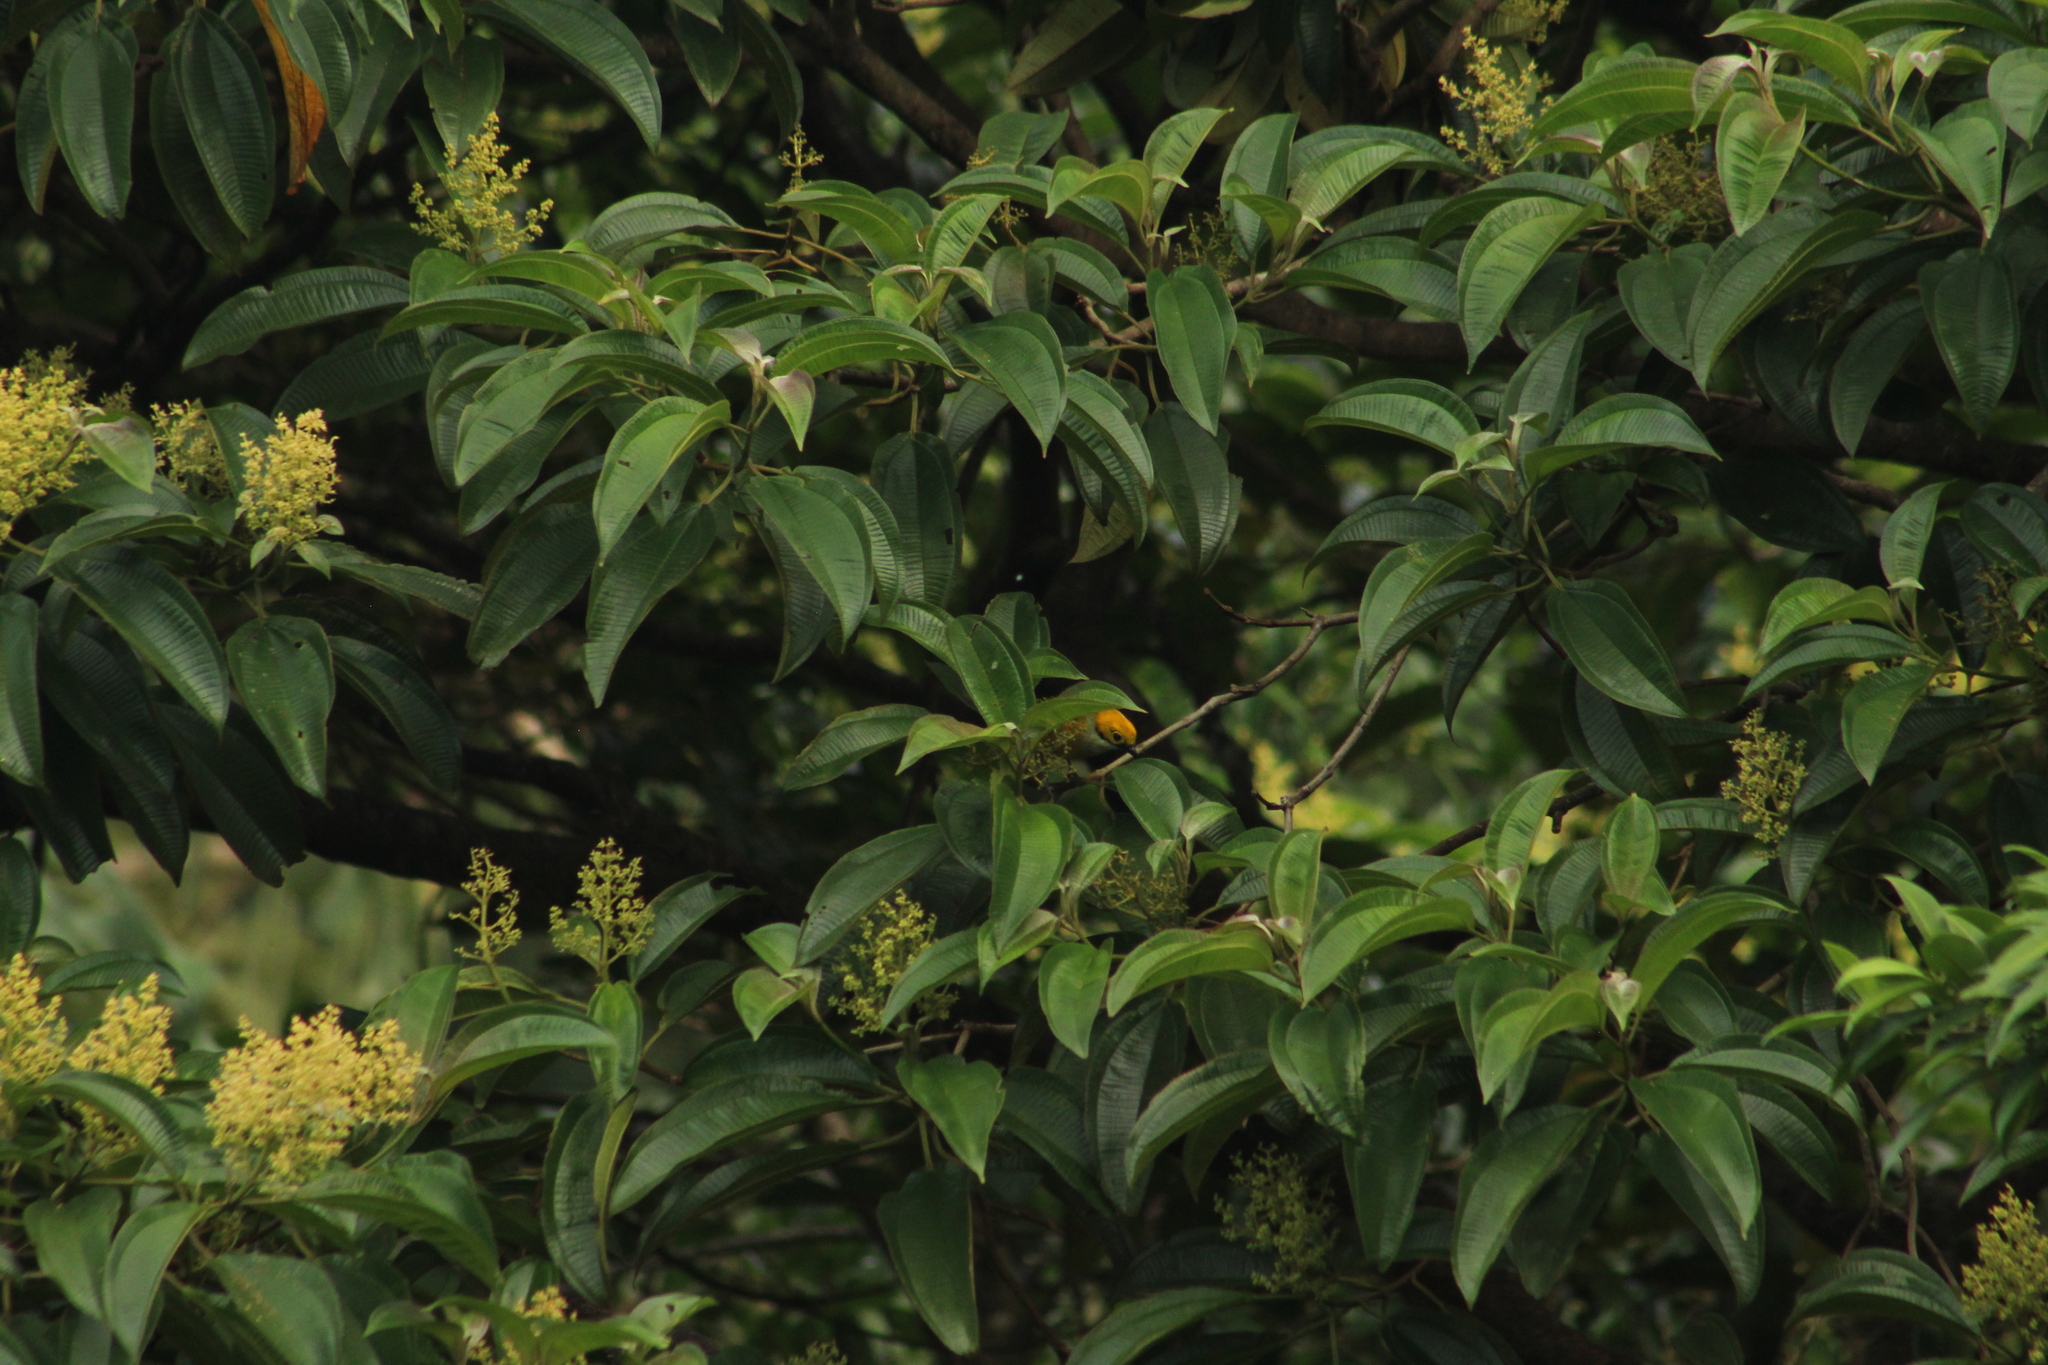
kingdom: Animalia
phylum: Chordata
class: Aves
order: Passeriformes
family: Thraupidae
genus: Tangara
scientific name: Tangara icterocephala
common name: Silver-throated tanager
